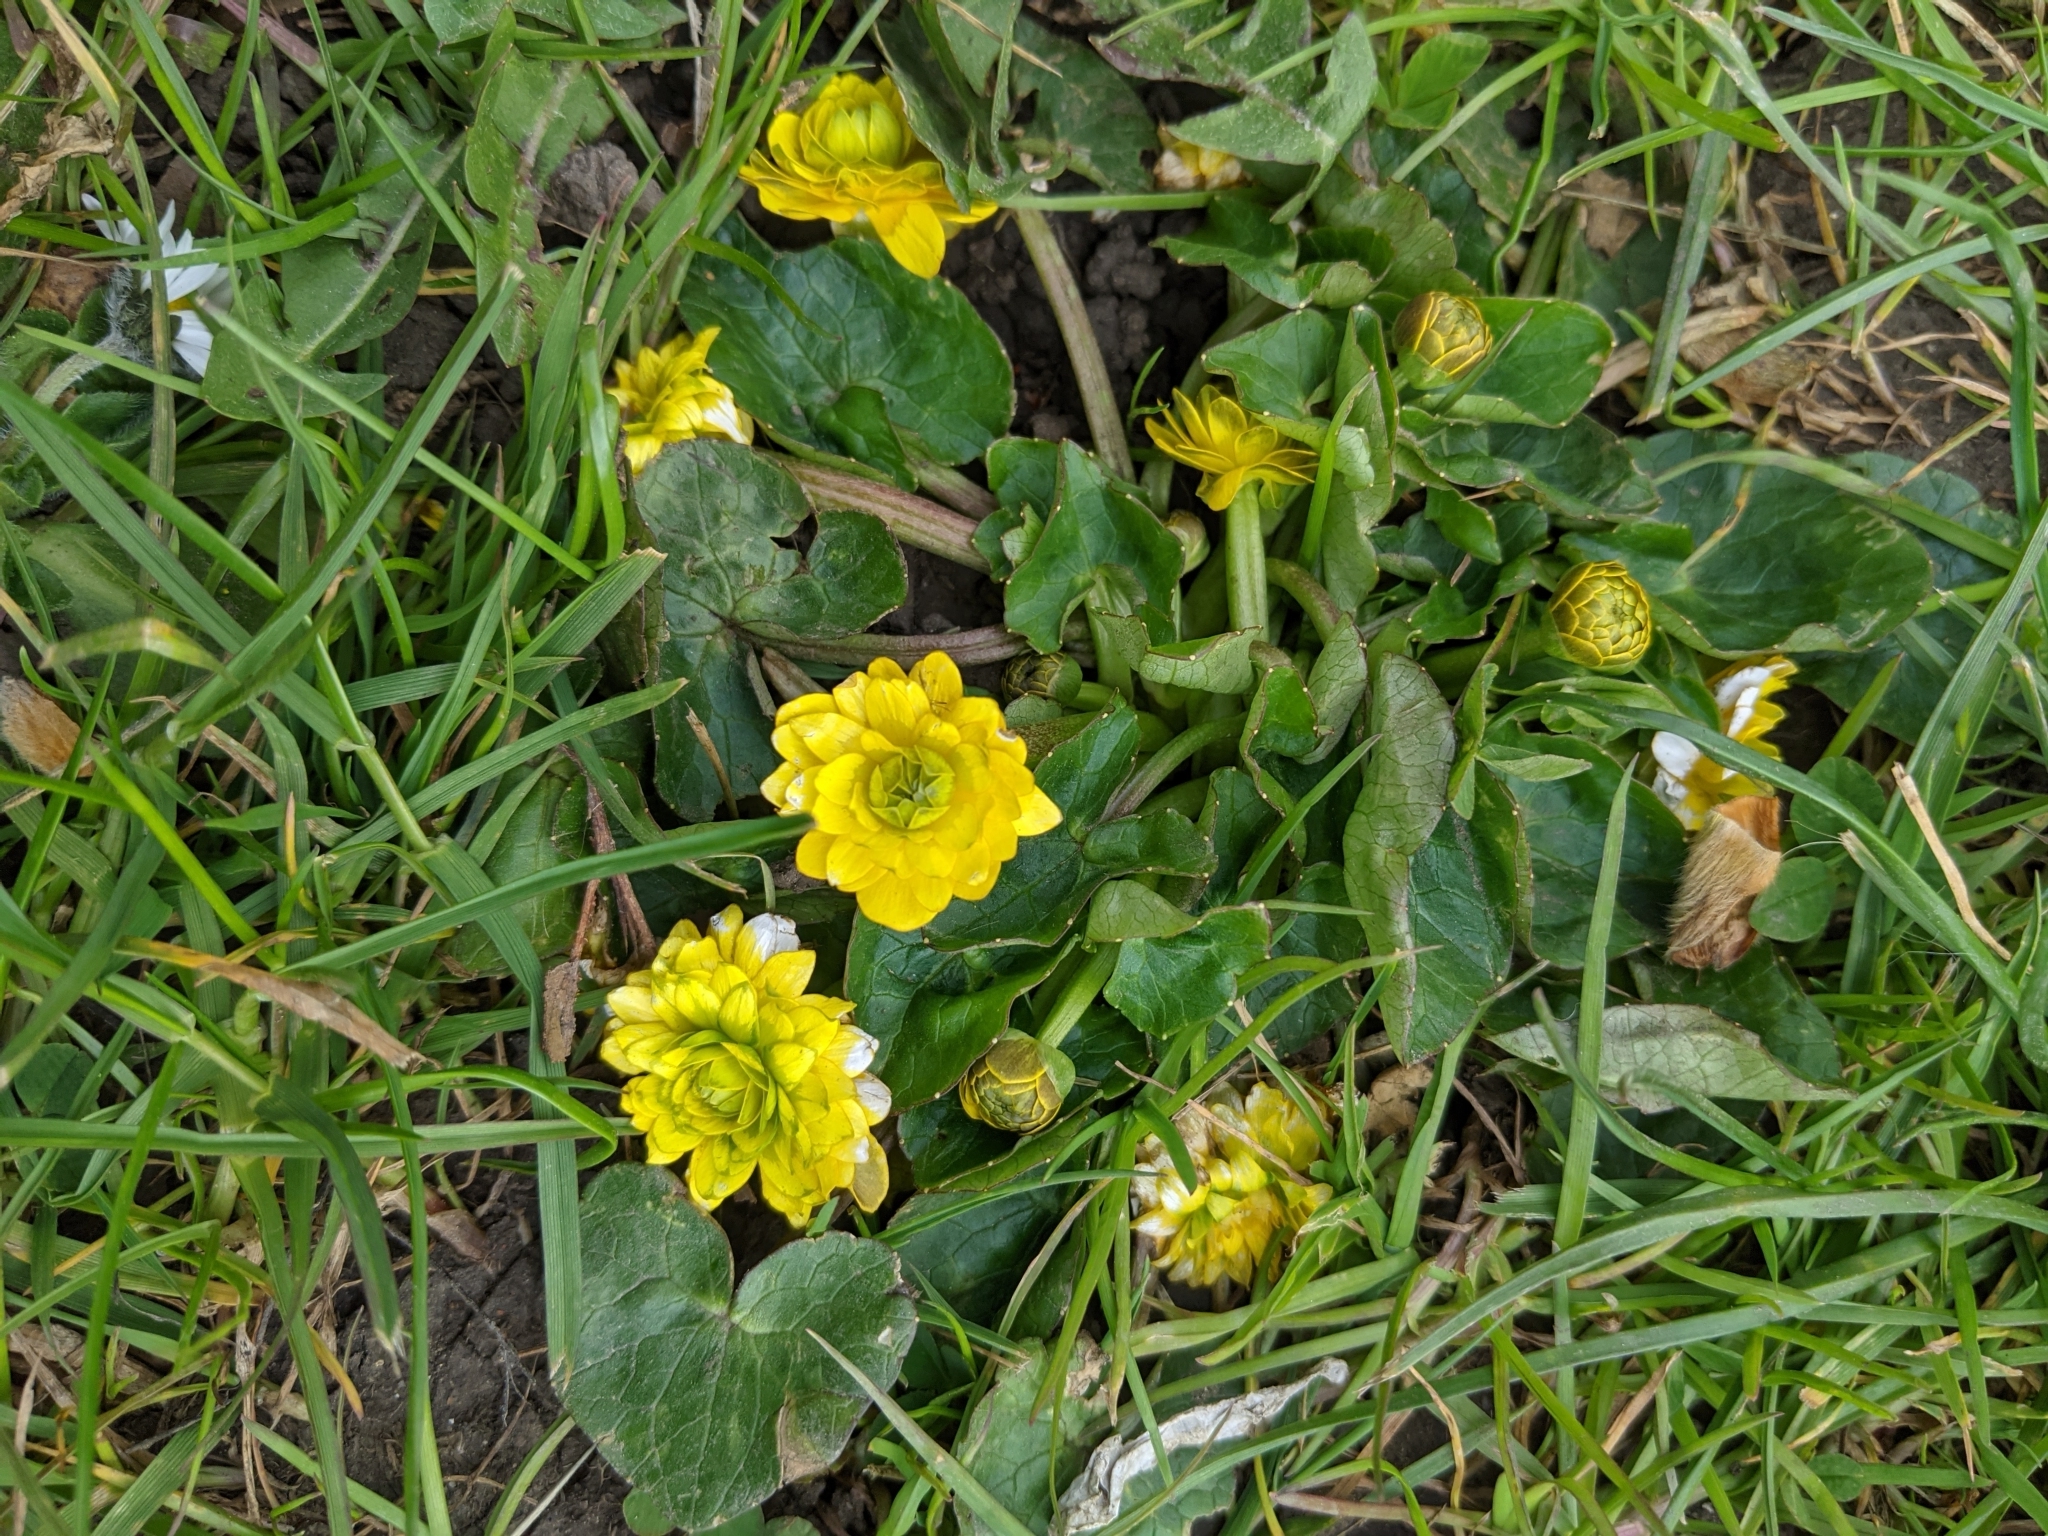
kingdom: Plantae
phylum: Tracheophyta
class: Magnoliopsida
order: Ranunculales
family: Ranunculaceae
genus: Ficaria
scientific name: Ficaria verna
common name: Lesser celandine
